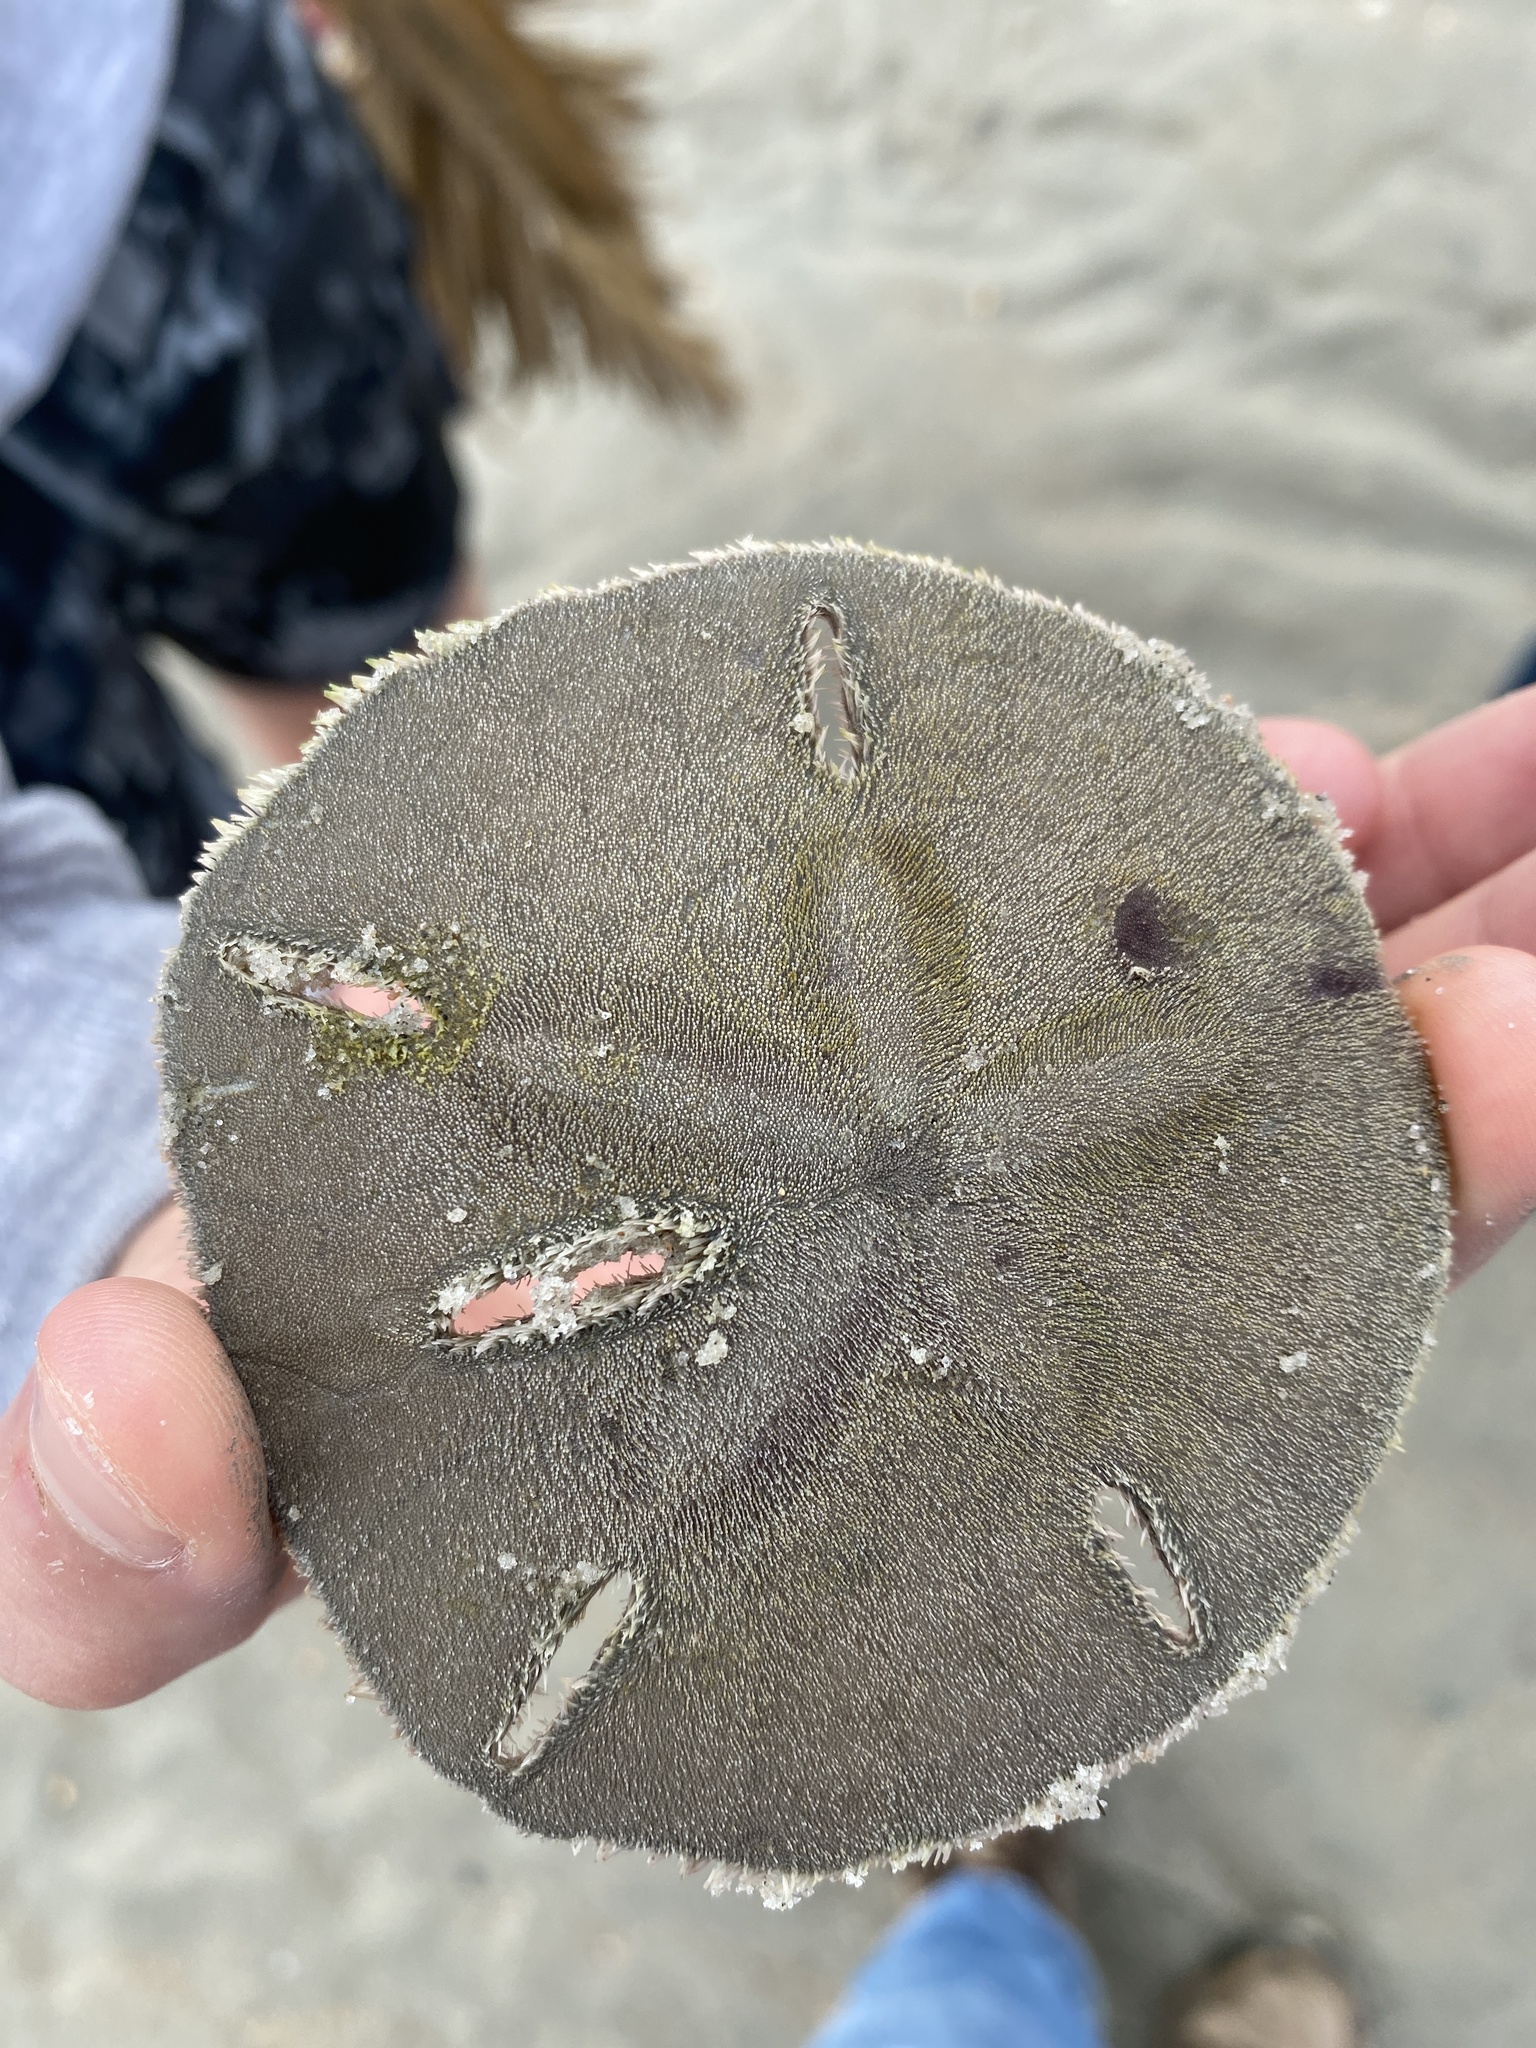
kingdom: Animalia
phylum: Echinodermata
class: Echinoidea
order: Echinolampadacea
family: Mellitidae
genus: Mellita
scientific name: Mellita isometra
